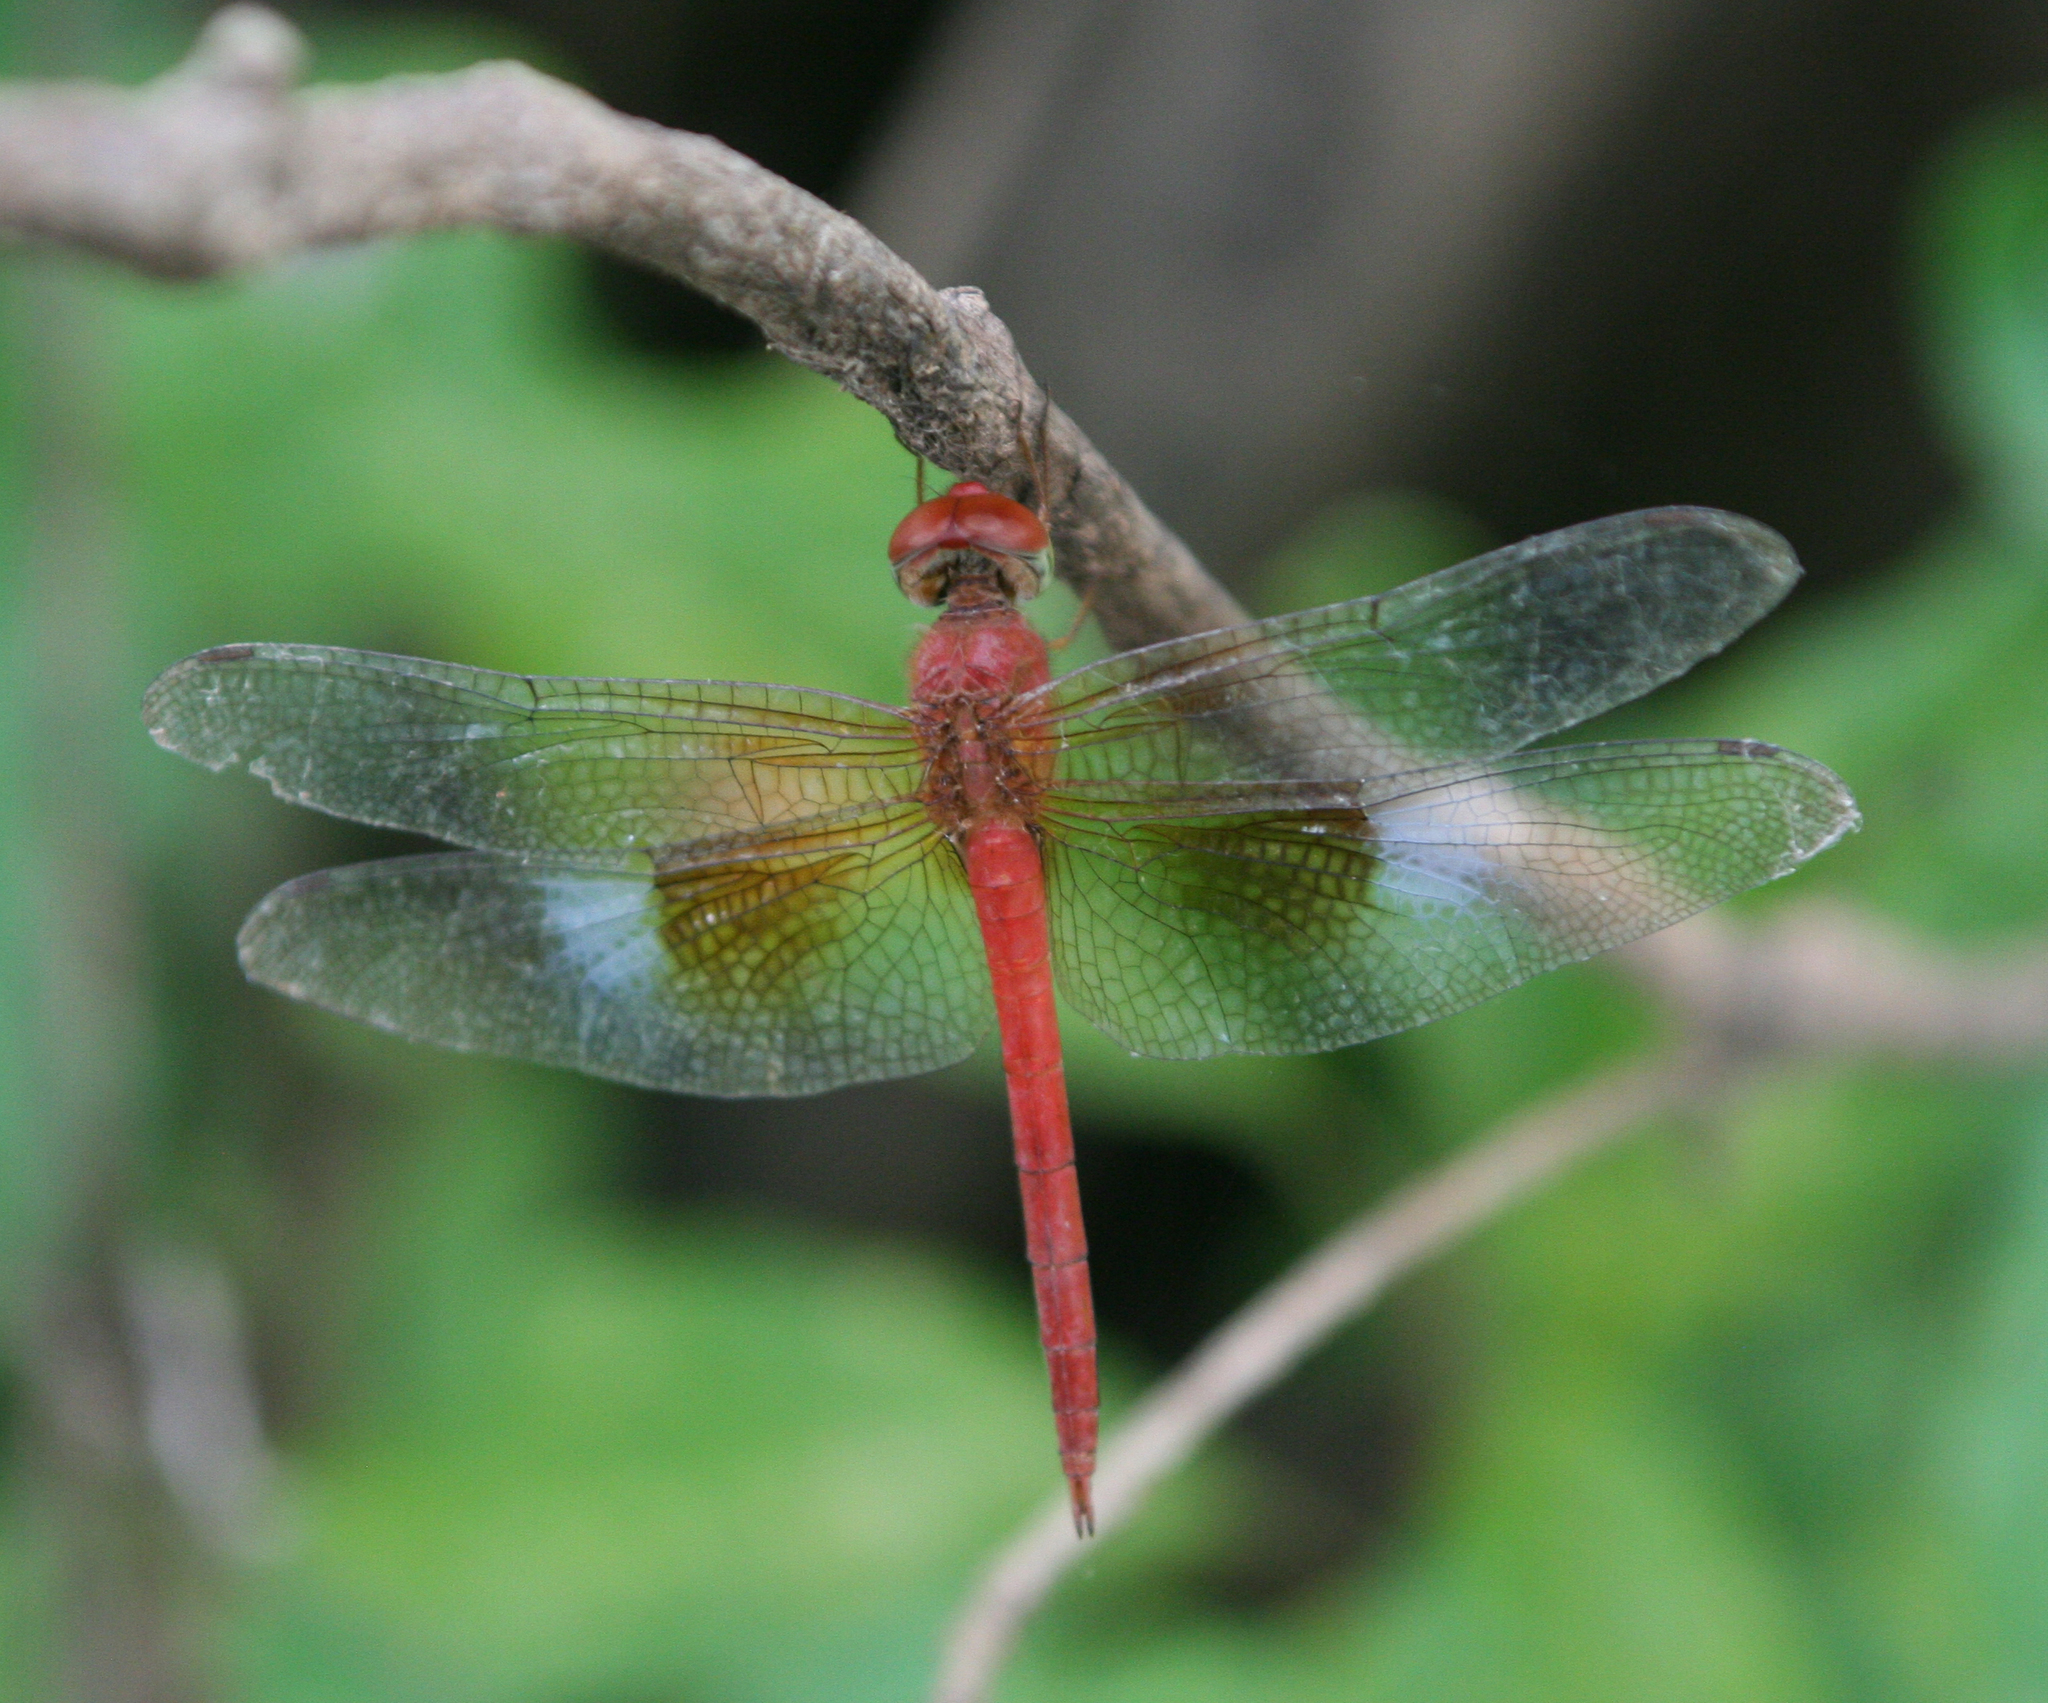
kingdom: Animalia
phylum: Arthropoda
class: Insecta
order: Odonata
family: Libellulidae
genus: Tholymis
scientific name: Tholymis tillarga
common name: Coral-tailed cloud wing
